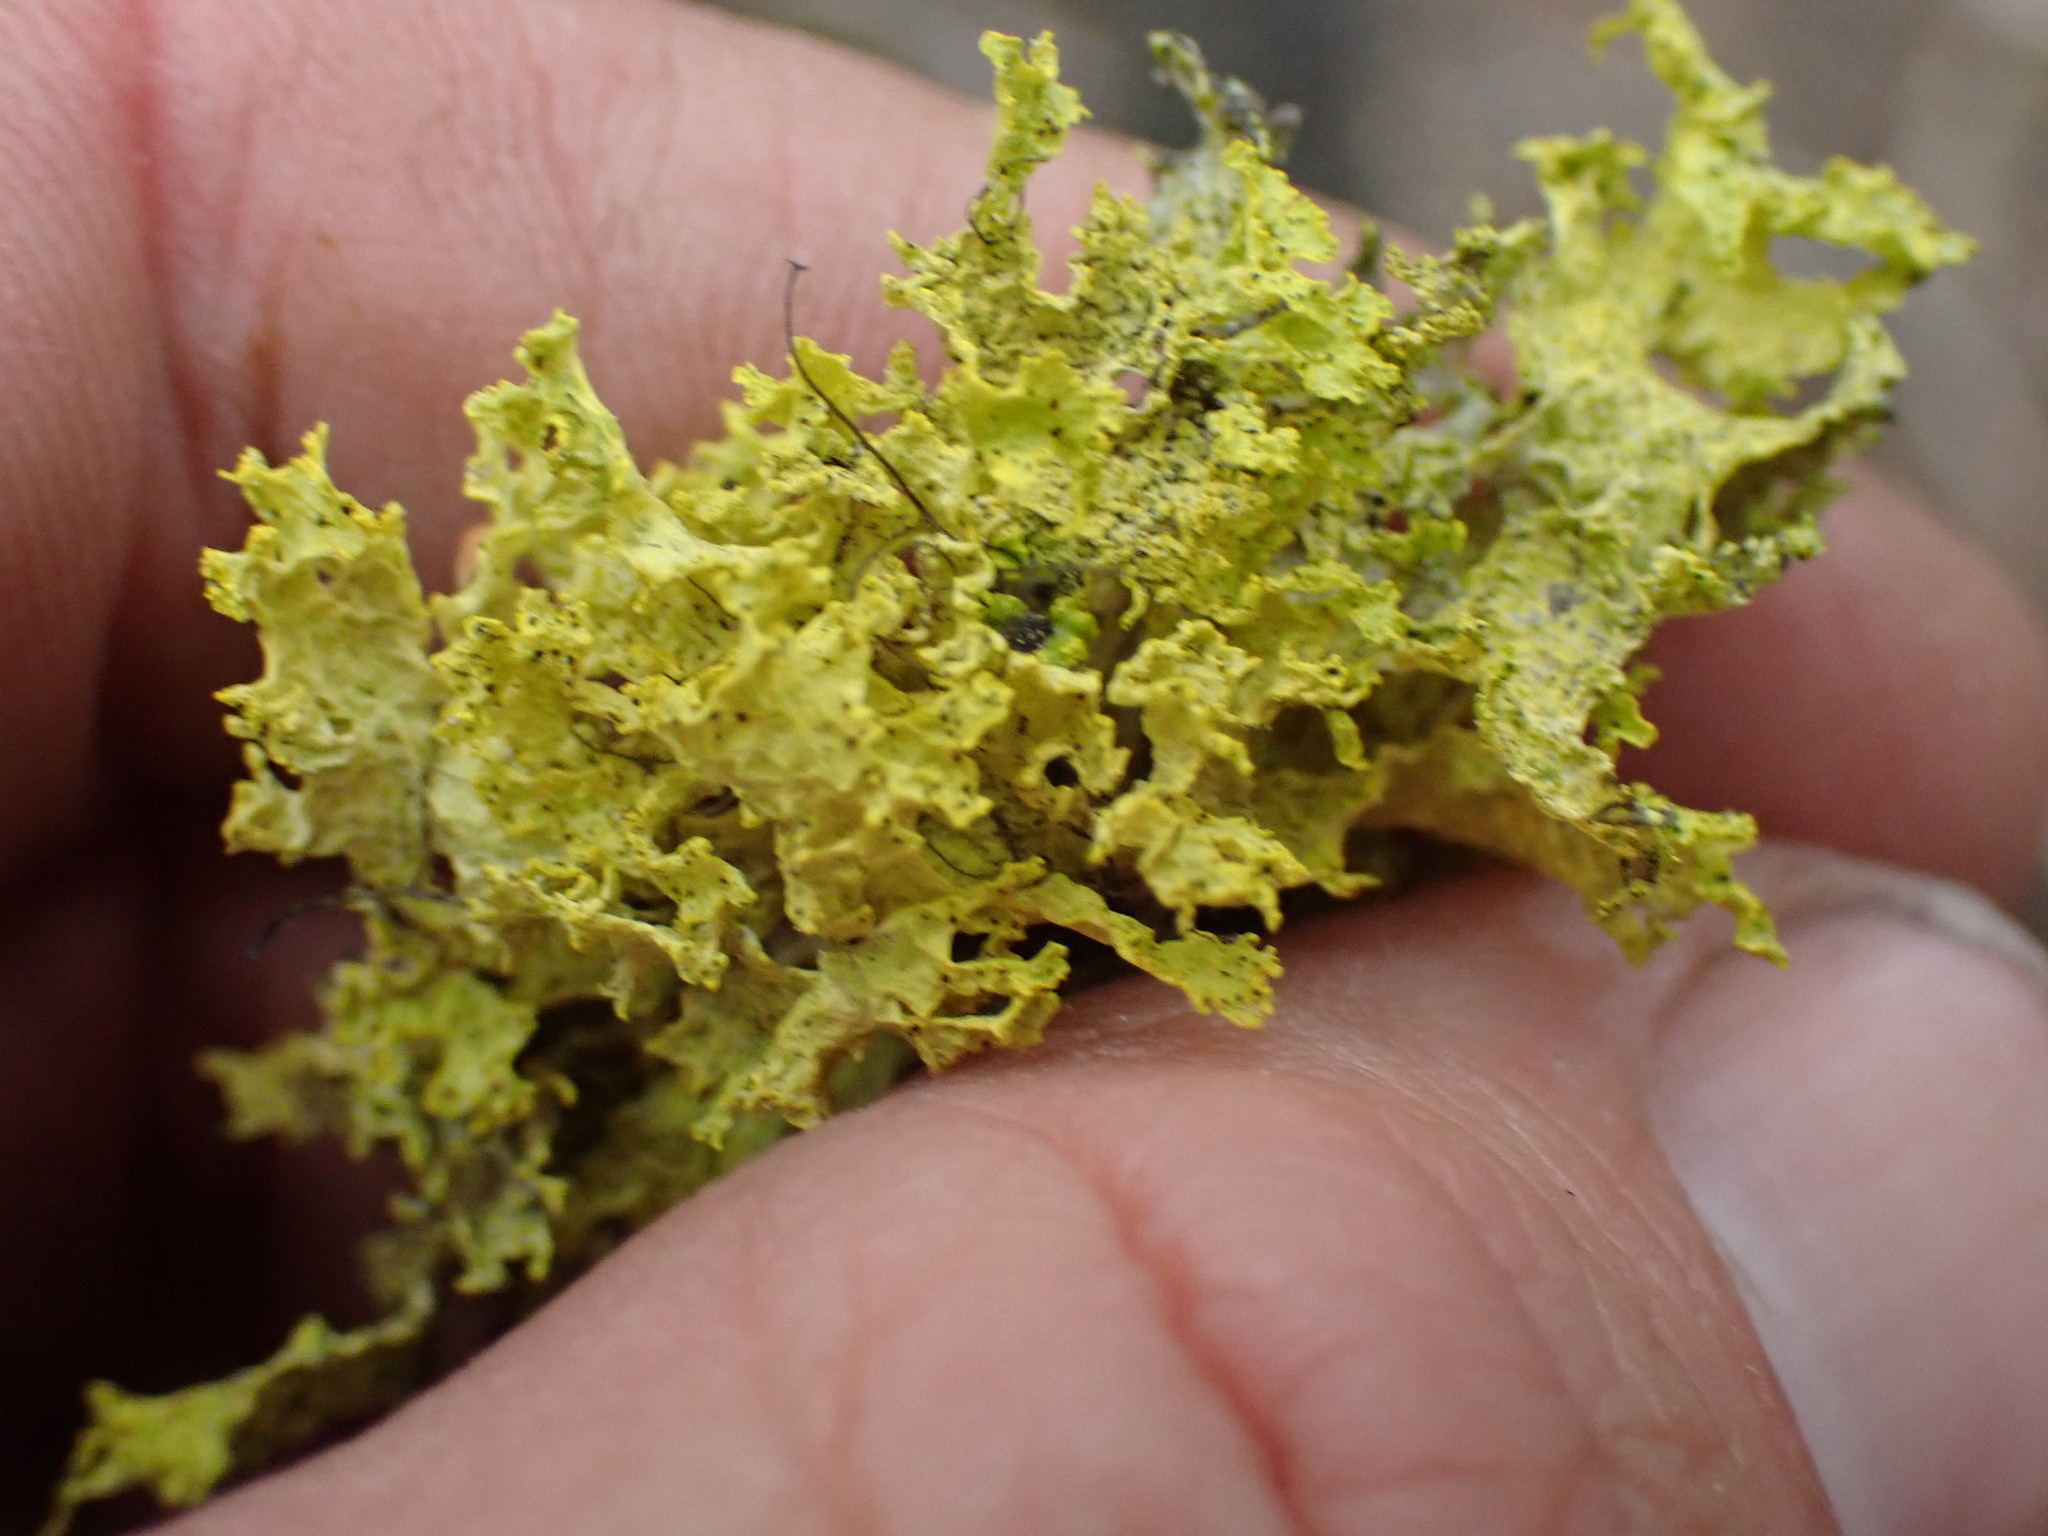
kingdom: Fungi
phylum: Ascomycota
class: Lecanoromycetes
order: Lecanorales
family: Parmeliaceae
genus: Vulpicida
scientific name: Vulpicida canadensis
